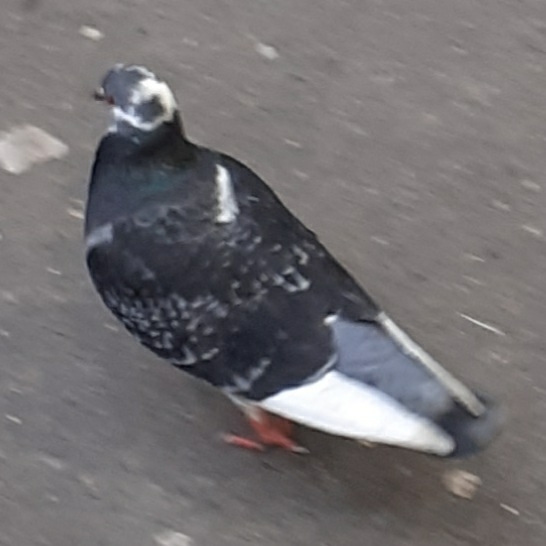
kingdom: Animalia
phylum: Chordata
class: Aves
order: Columbiformes
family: Columbidae
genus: Columba
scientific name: Columba livia
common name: Rock pigeon
